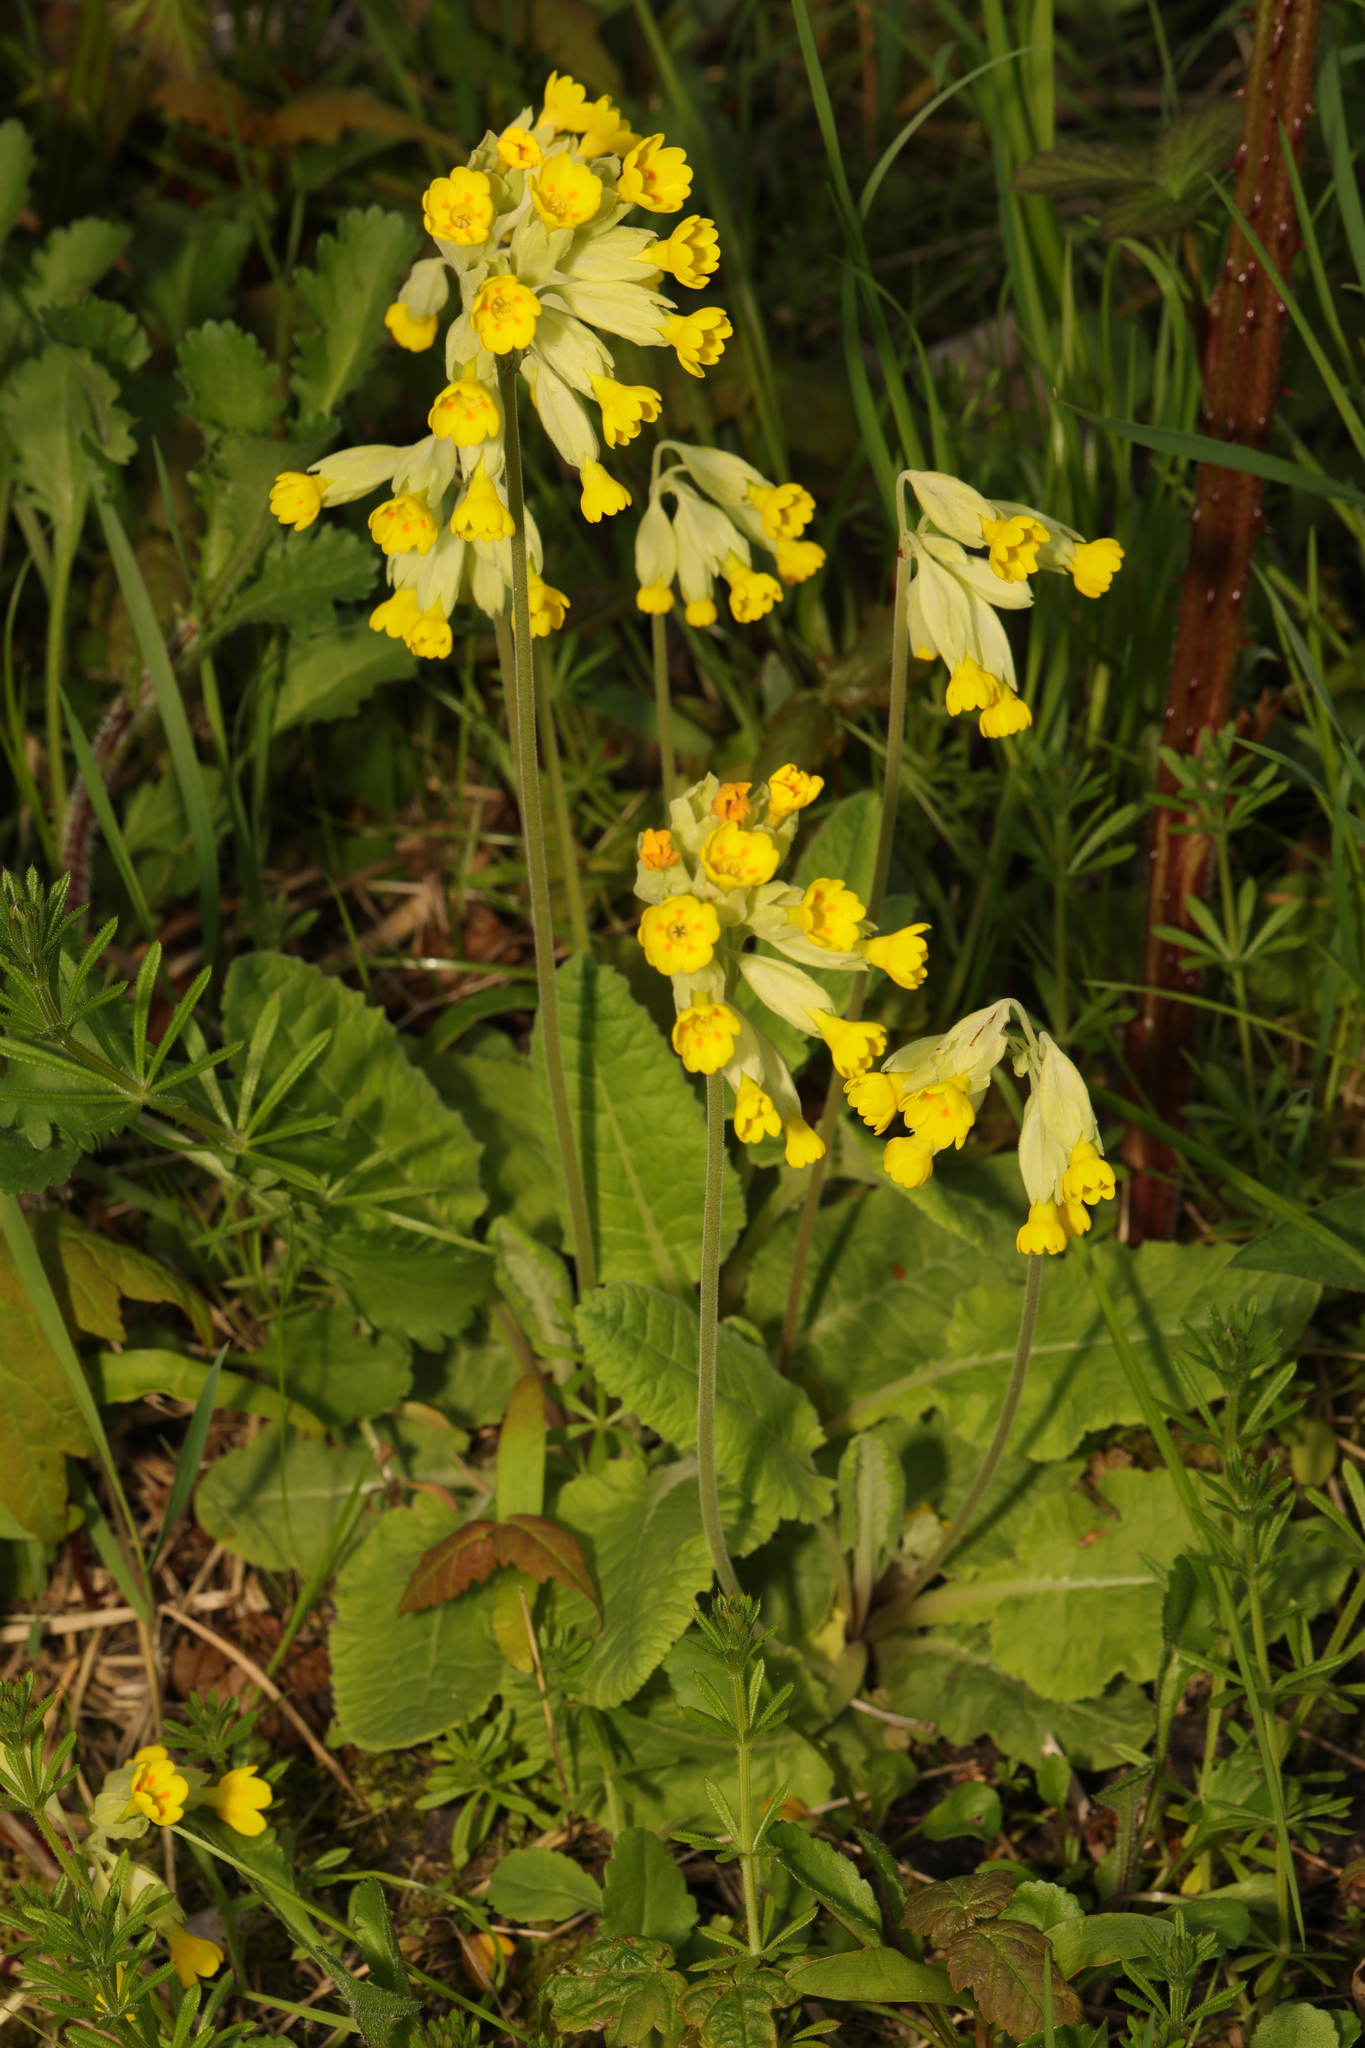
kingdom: Plantae
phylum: Tracheophyta
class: Magnoliopsida
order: Ericales
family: Primulaceae
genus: Primula
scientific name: Primula veris
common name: Cowslip
